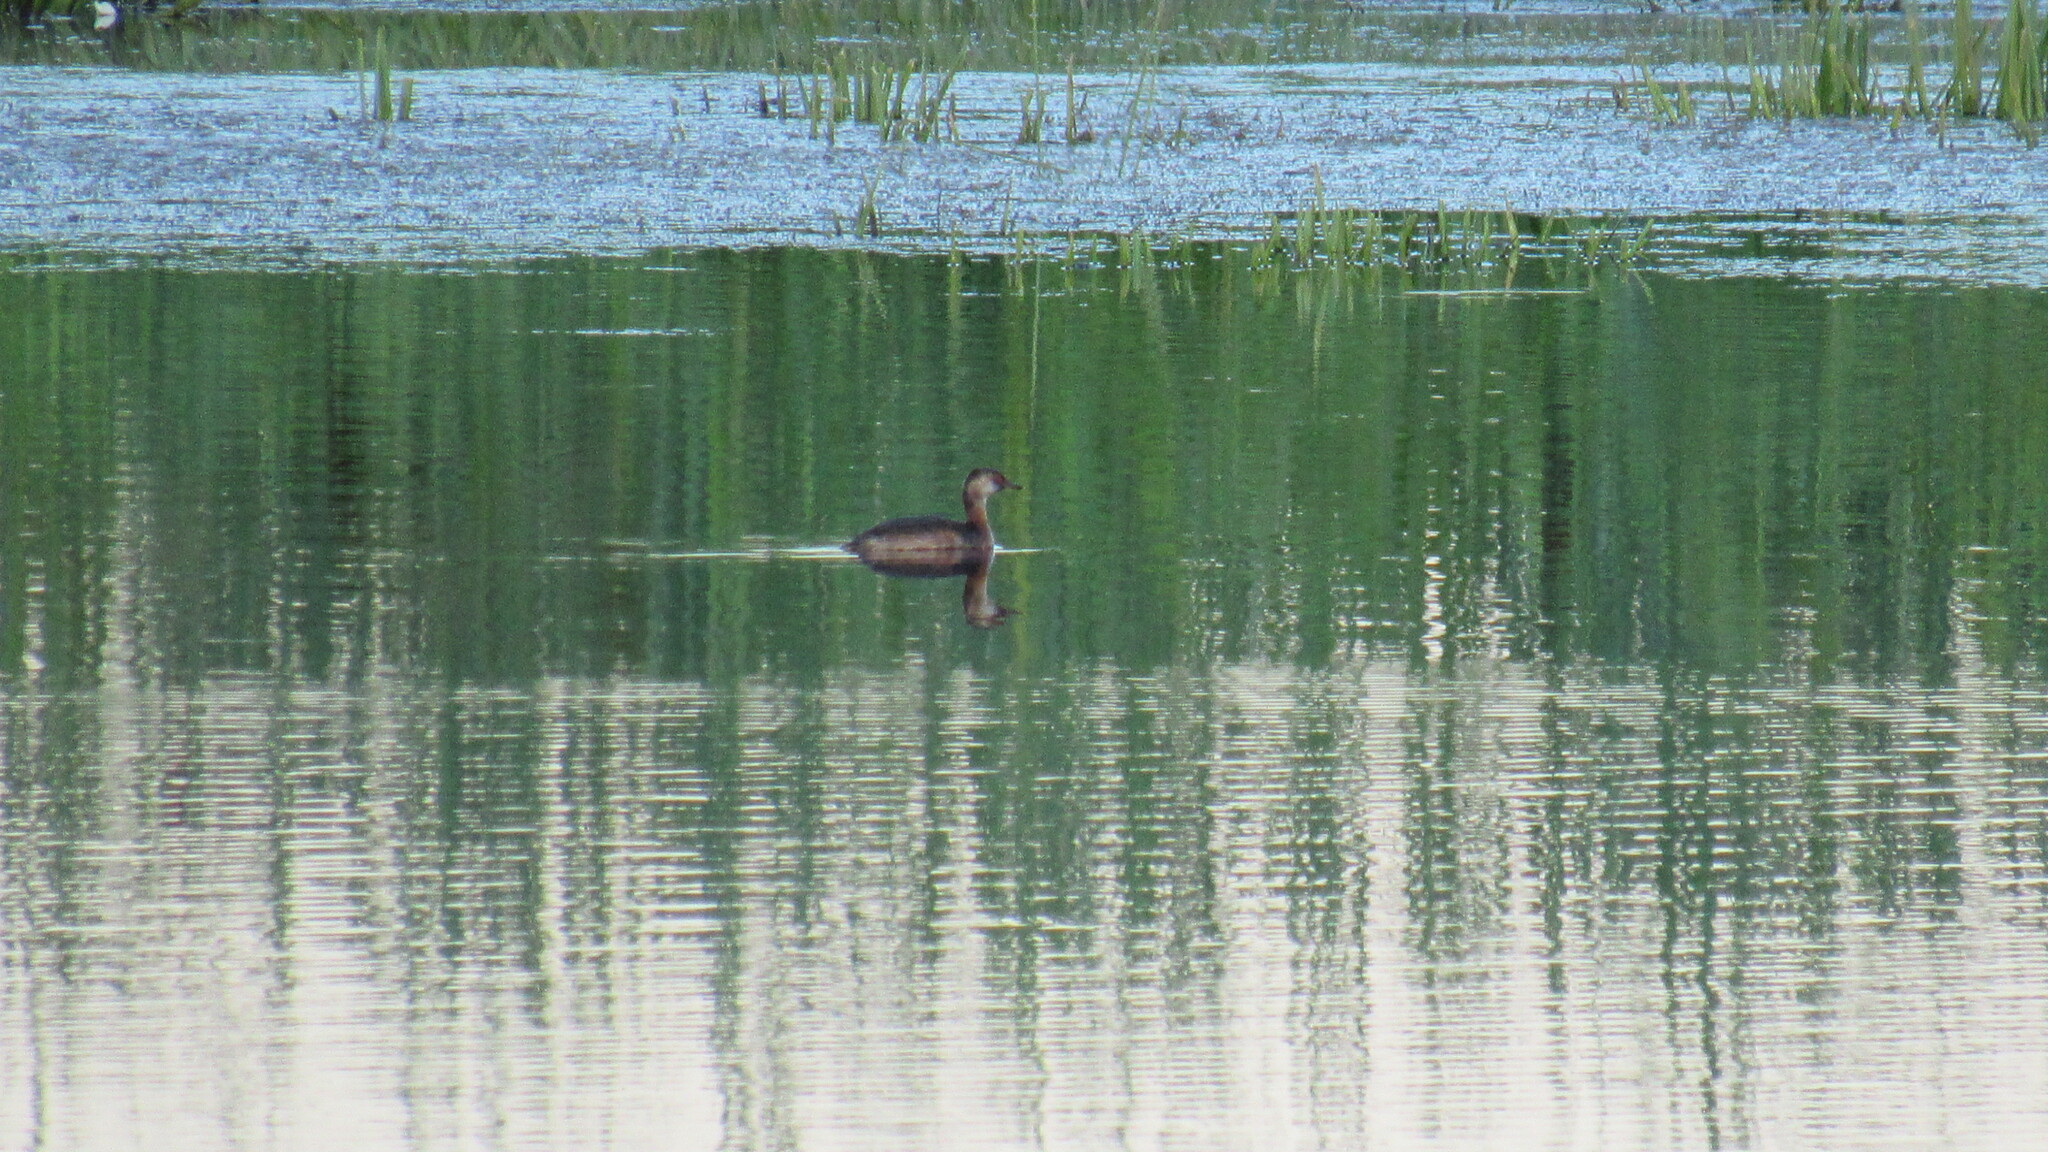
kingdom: Animalia
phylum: Chordata
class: Aves
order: Podicipediformes
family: Podicipedidae
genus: Podiceps
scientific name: Podiceps nigricollis
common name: Black-necked grebe
